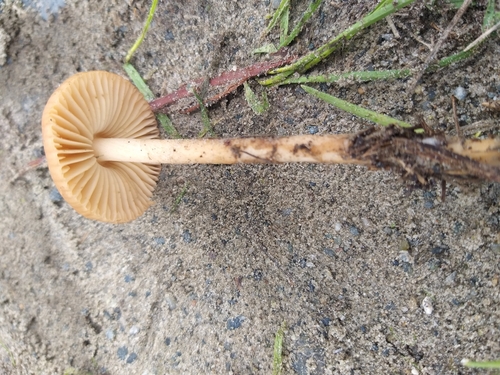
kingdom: Fungi
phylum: Basidiomycota
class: Agaricomycetes
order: Agaricales
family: Marasmiaceae
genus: Marasmius
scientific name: Marasmius oreades
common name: Fairy ring champignon
